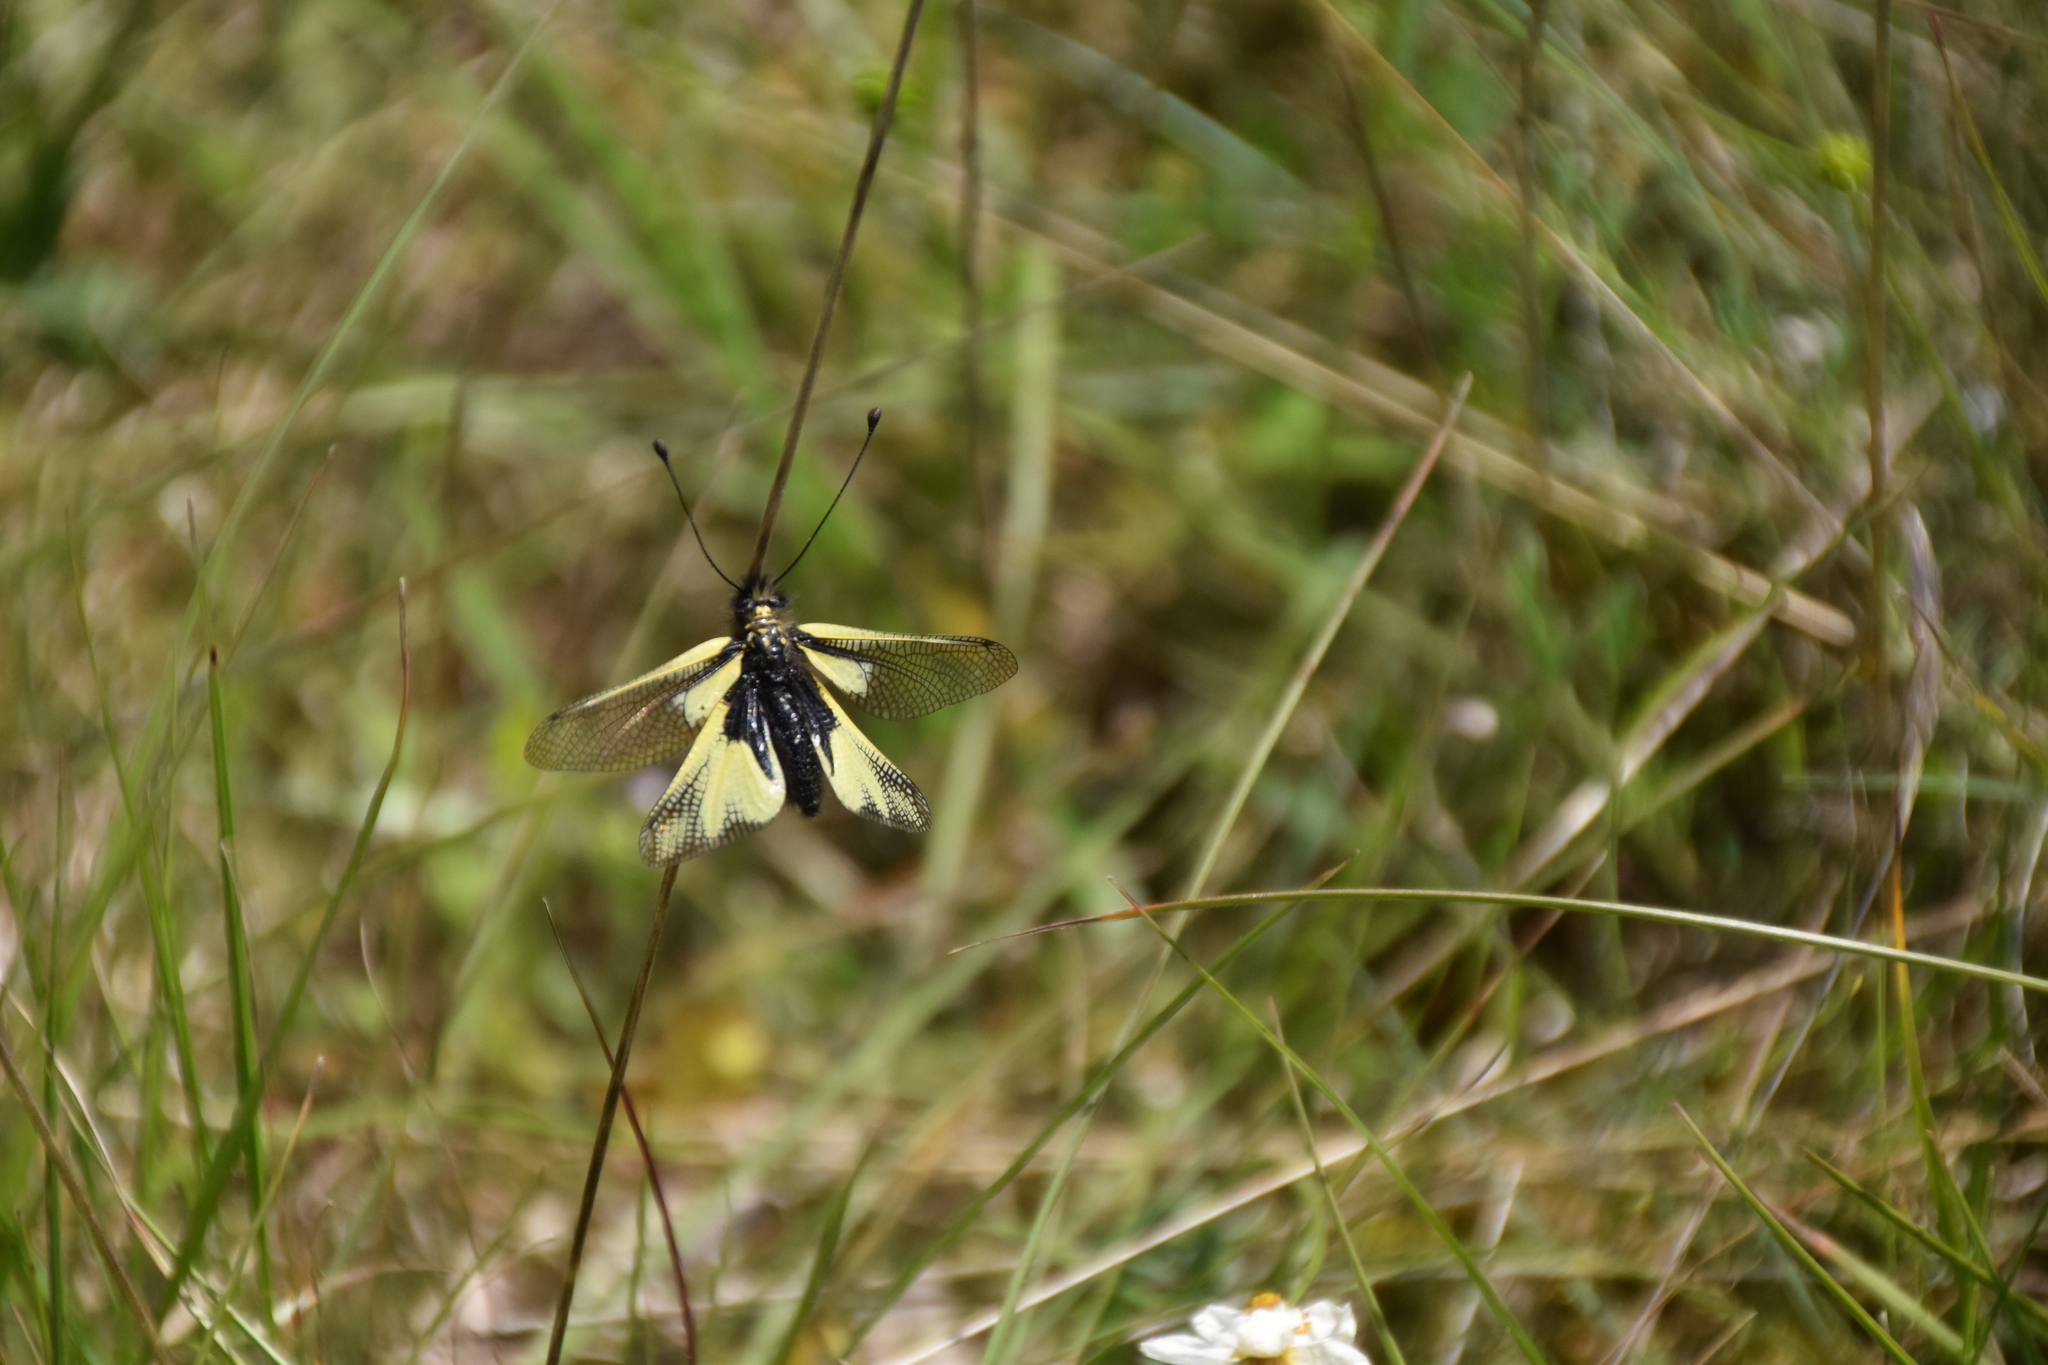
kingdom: Animalia
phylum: Arthropoda
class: Insecta
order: Neuroptera
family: Ascalaphidae
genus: Libelloides
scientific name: Libelloides coccajus
